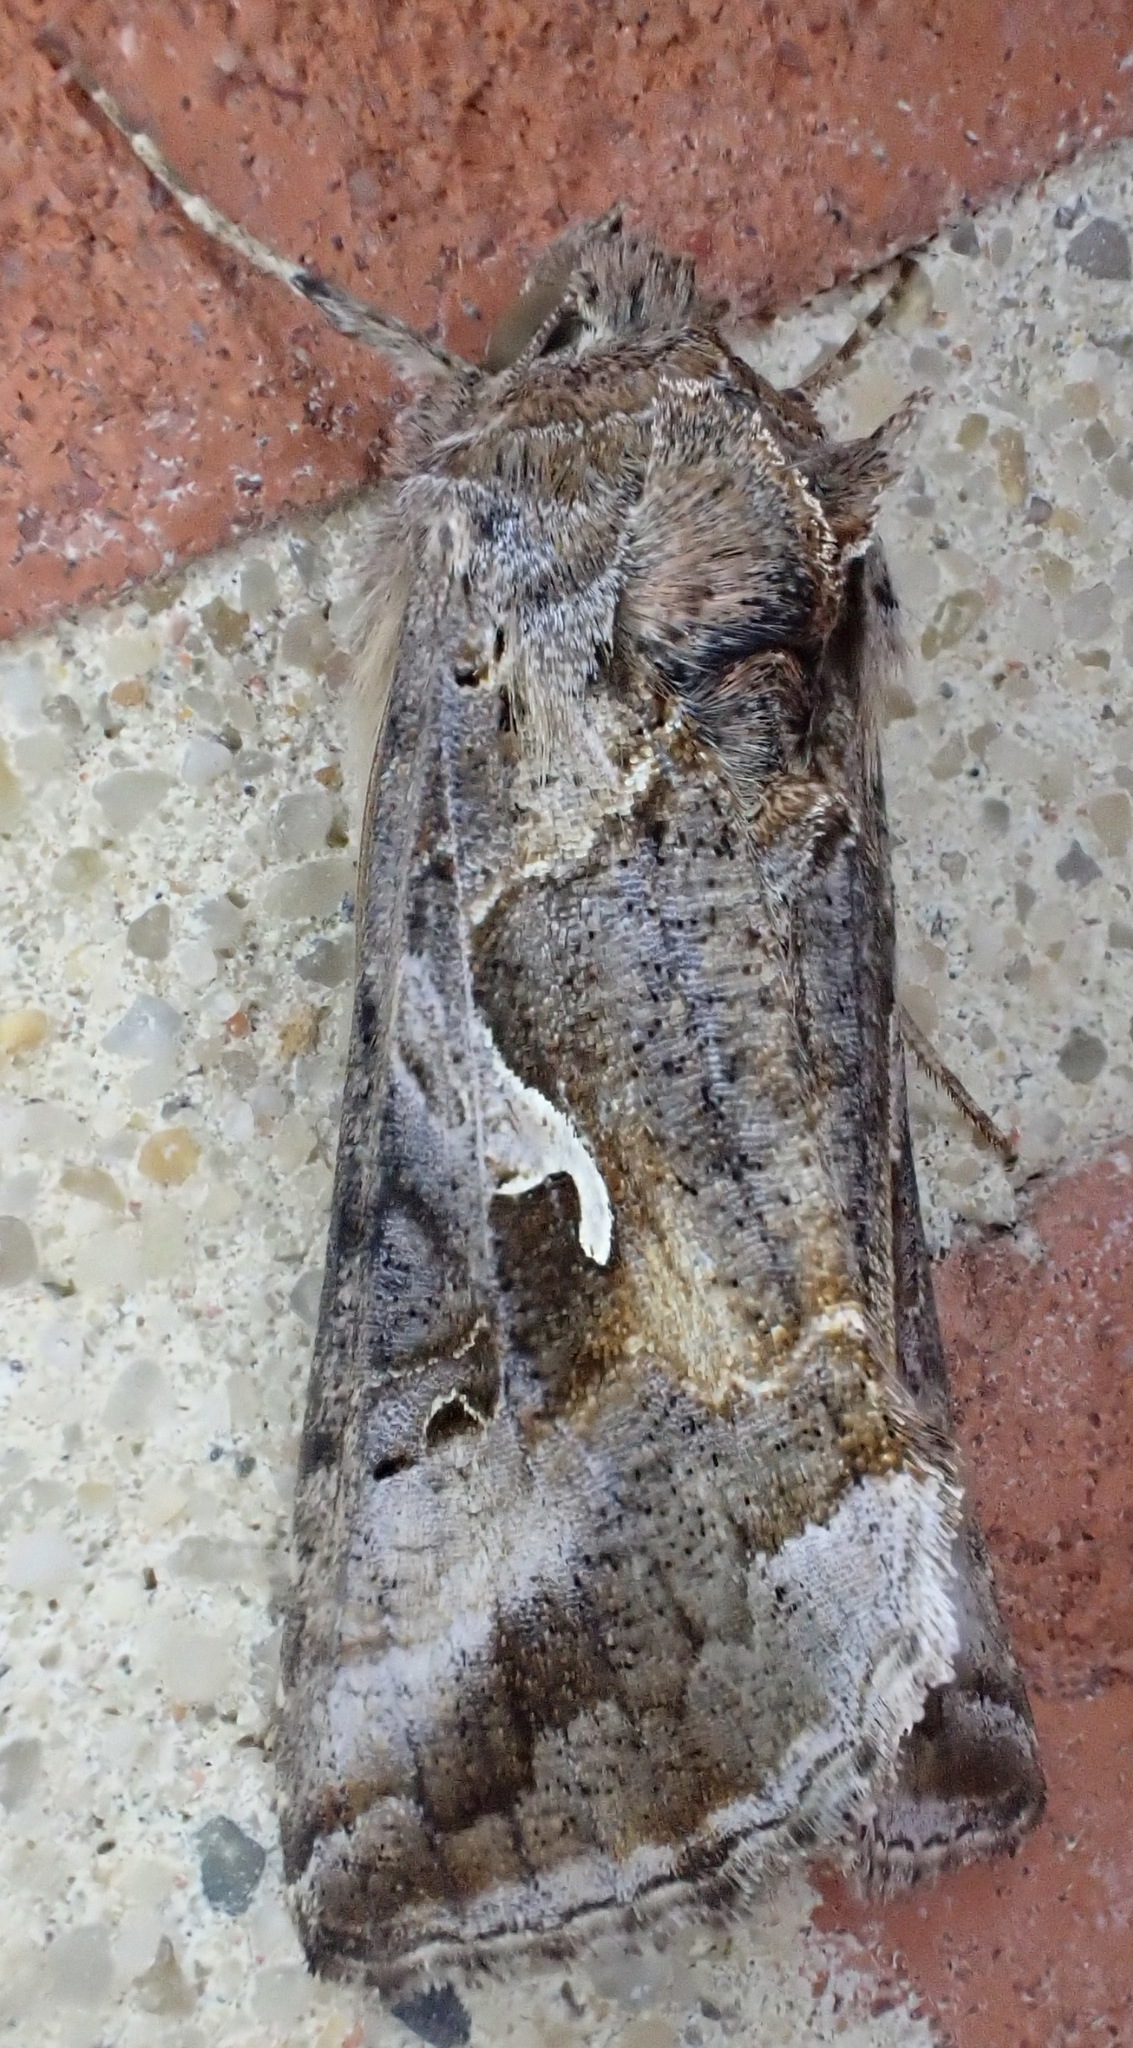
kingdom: Animalia
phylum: Arthropoda
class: Insecta
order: Lepidoptera
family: Noctuidae
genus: Autographa
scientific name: Autographa gamma
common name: Silver y
